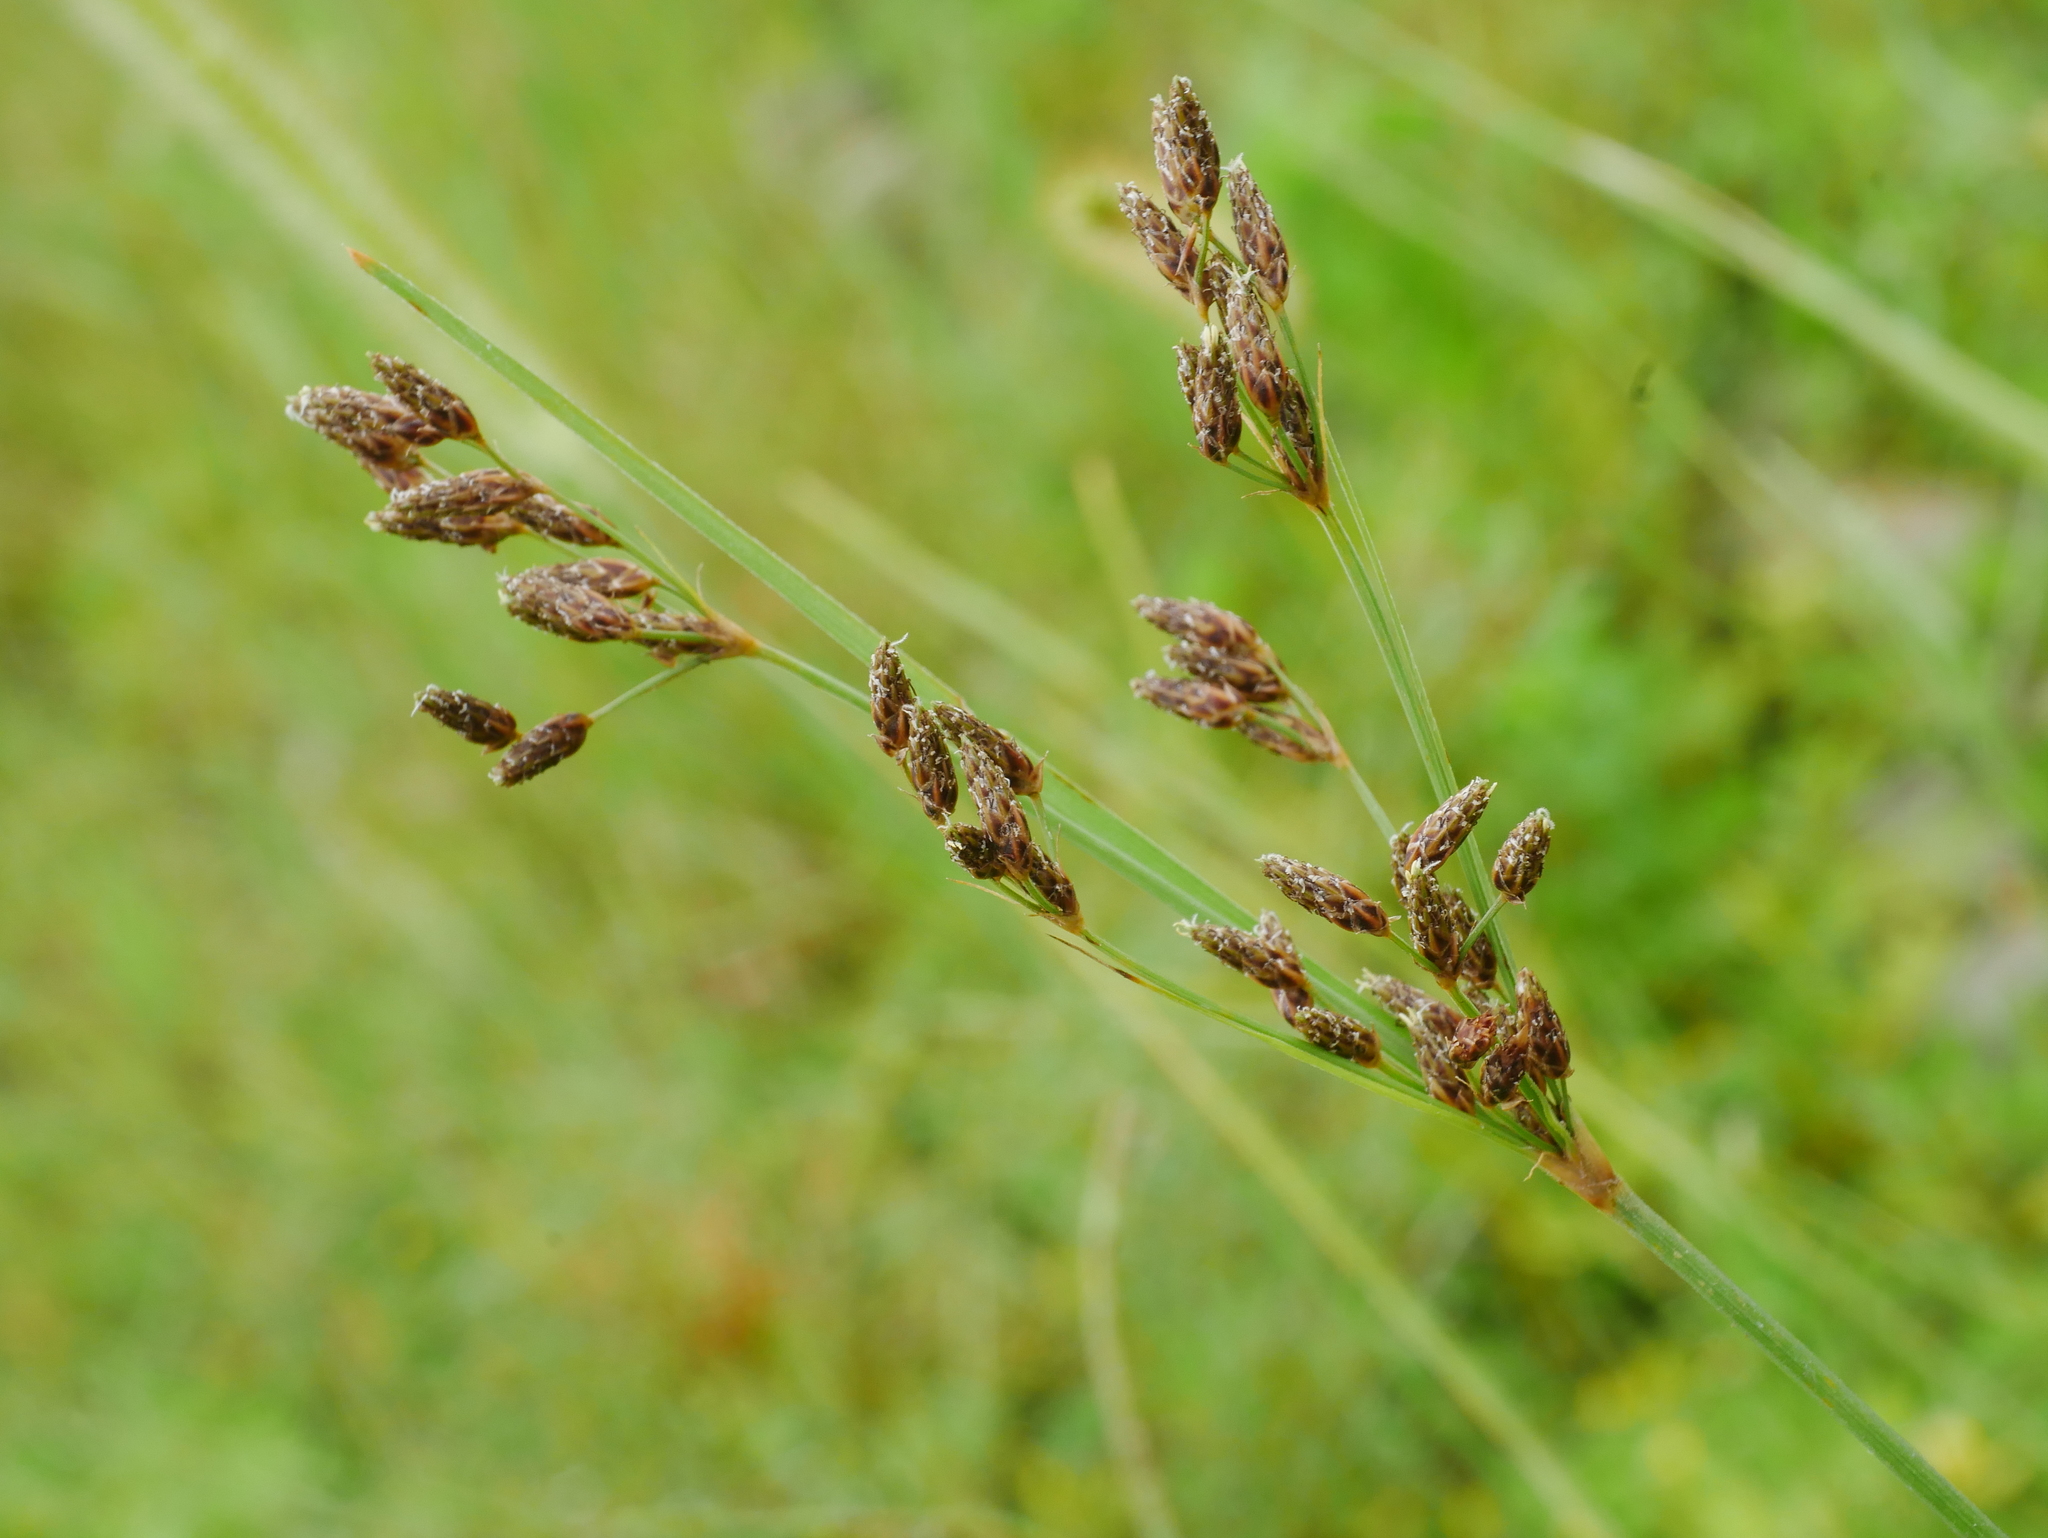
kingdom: Plantae
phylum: Tracheophyta
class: Liliopsida
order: Poales
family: Cyperaceae
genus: Fimbristylis
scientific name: Fimbristylis dichotoma
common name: Forked fimbry
